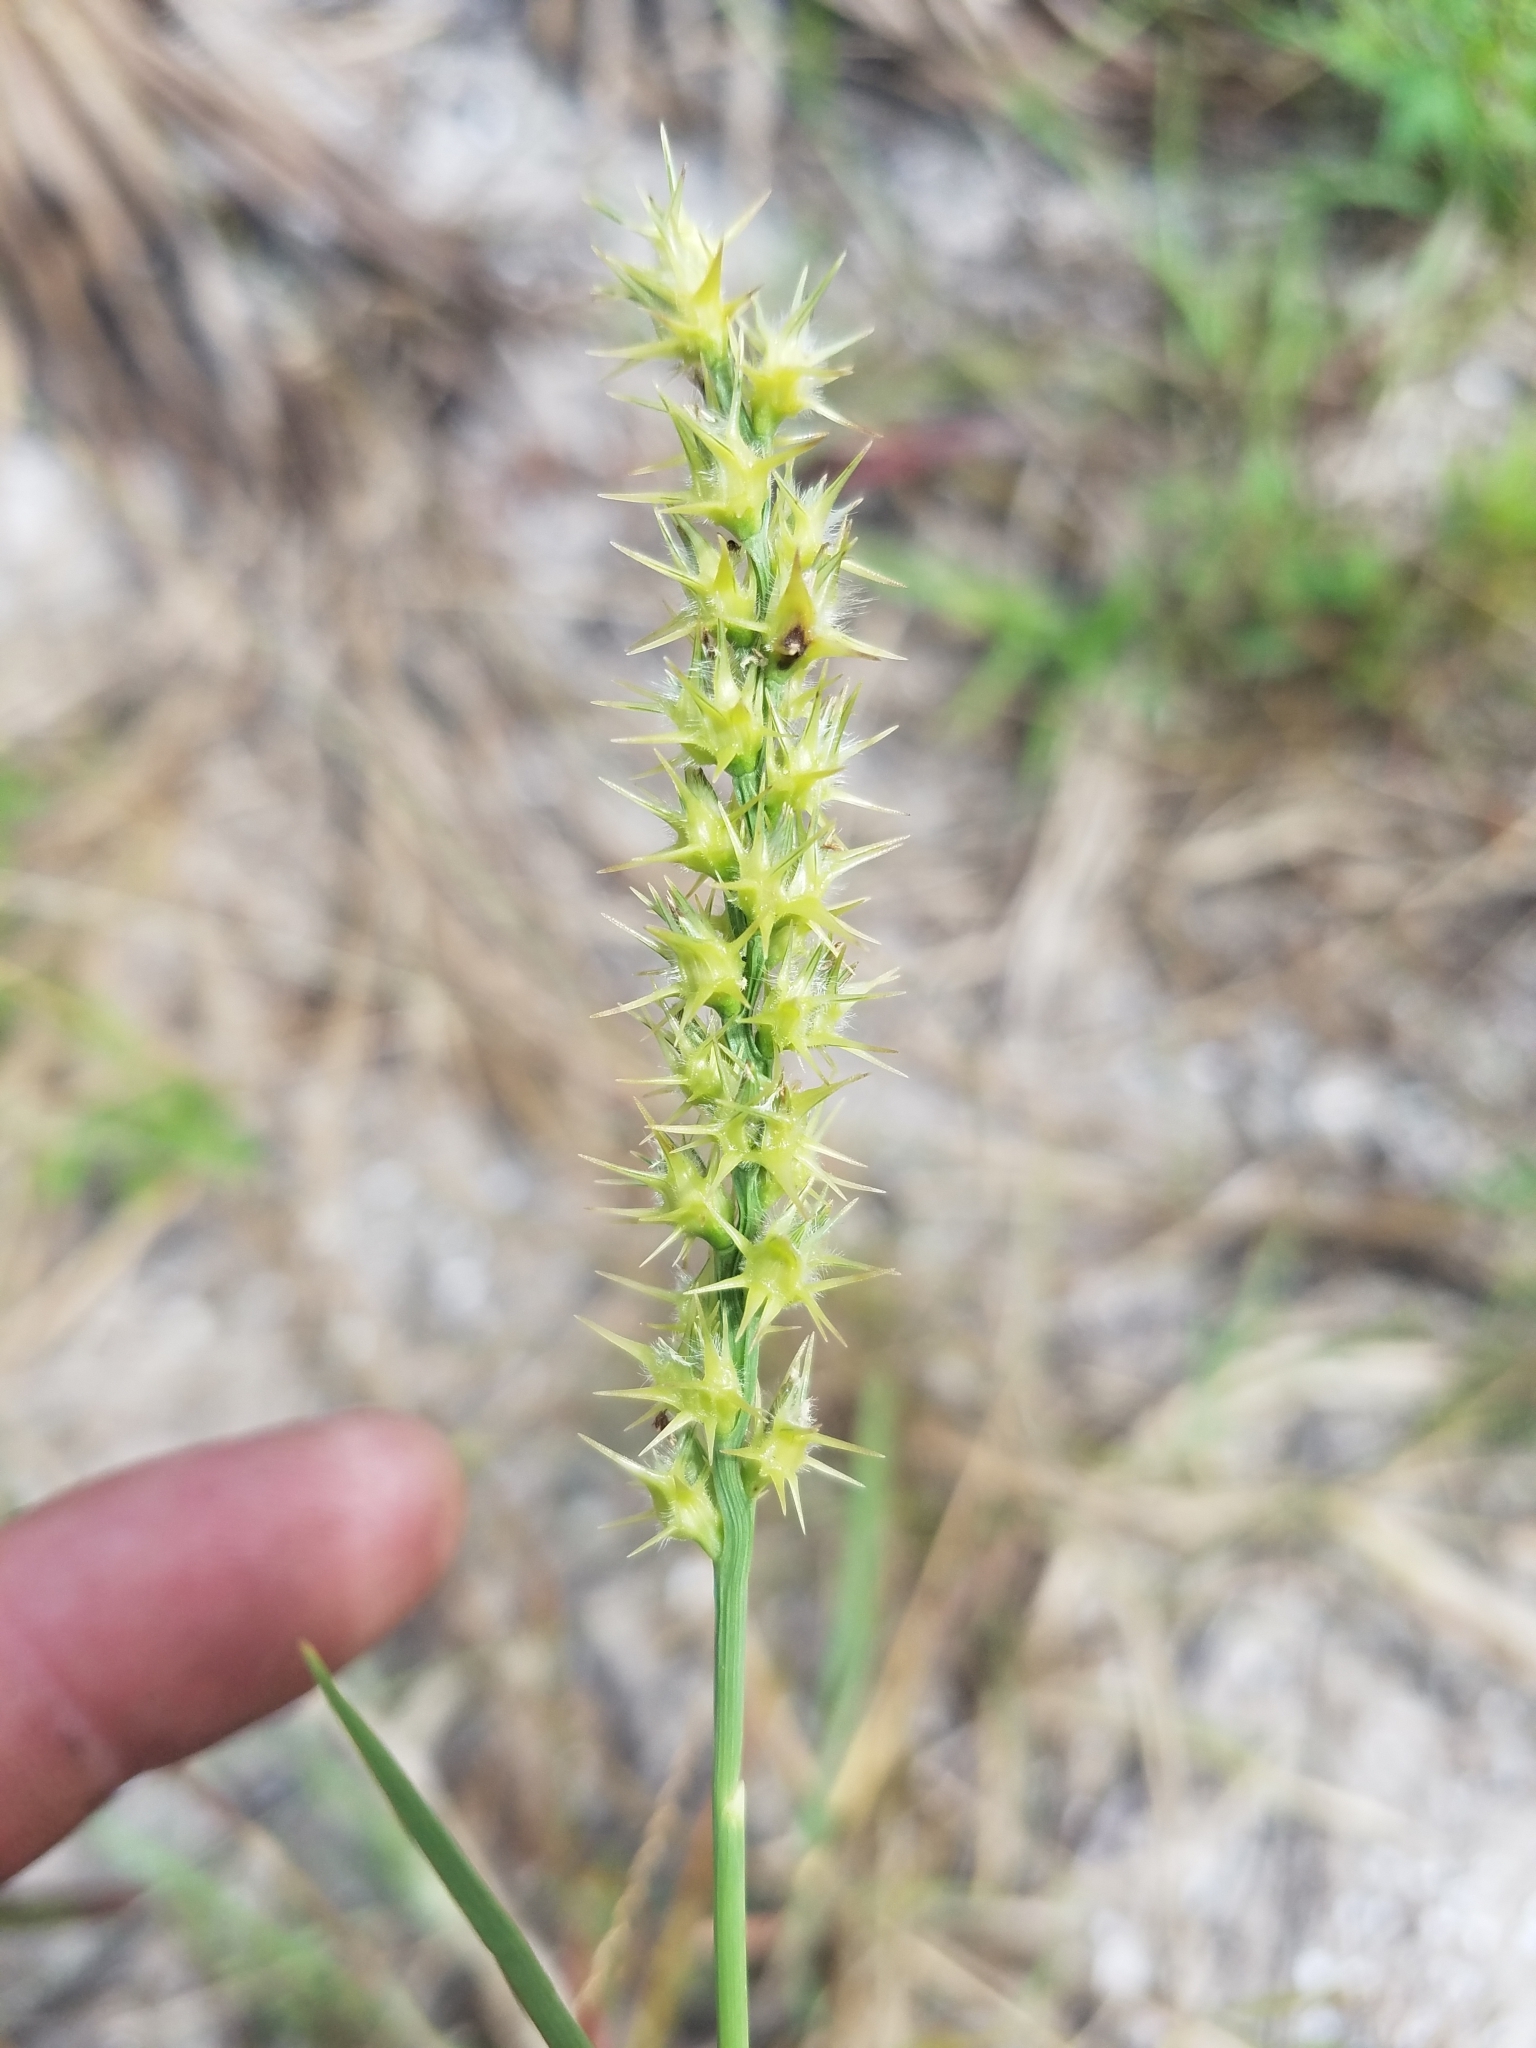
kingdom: Plantae
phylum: Tracheophyta
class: Liliopsida
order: Poales
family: Poaceae
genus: Cenchrus
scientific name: Cenchrus spinifex
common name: Coast sandbur
